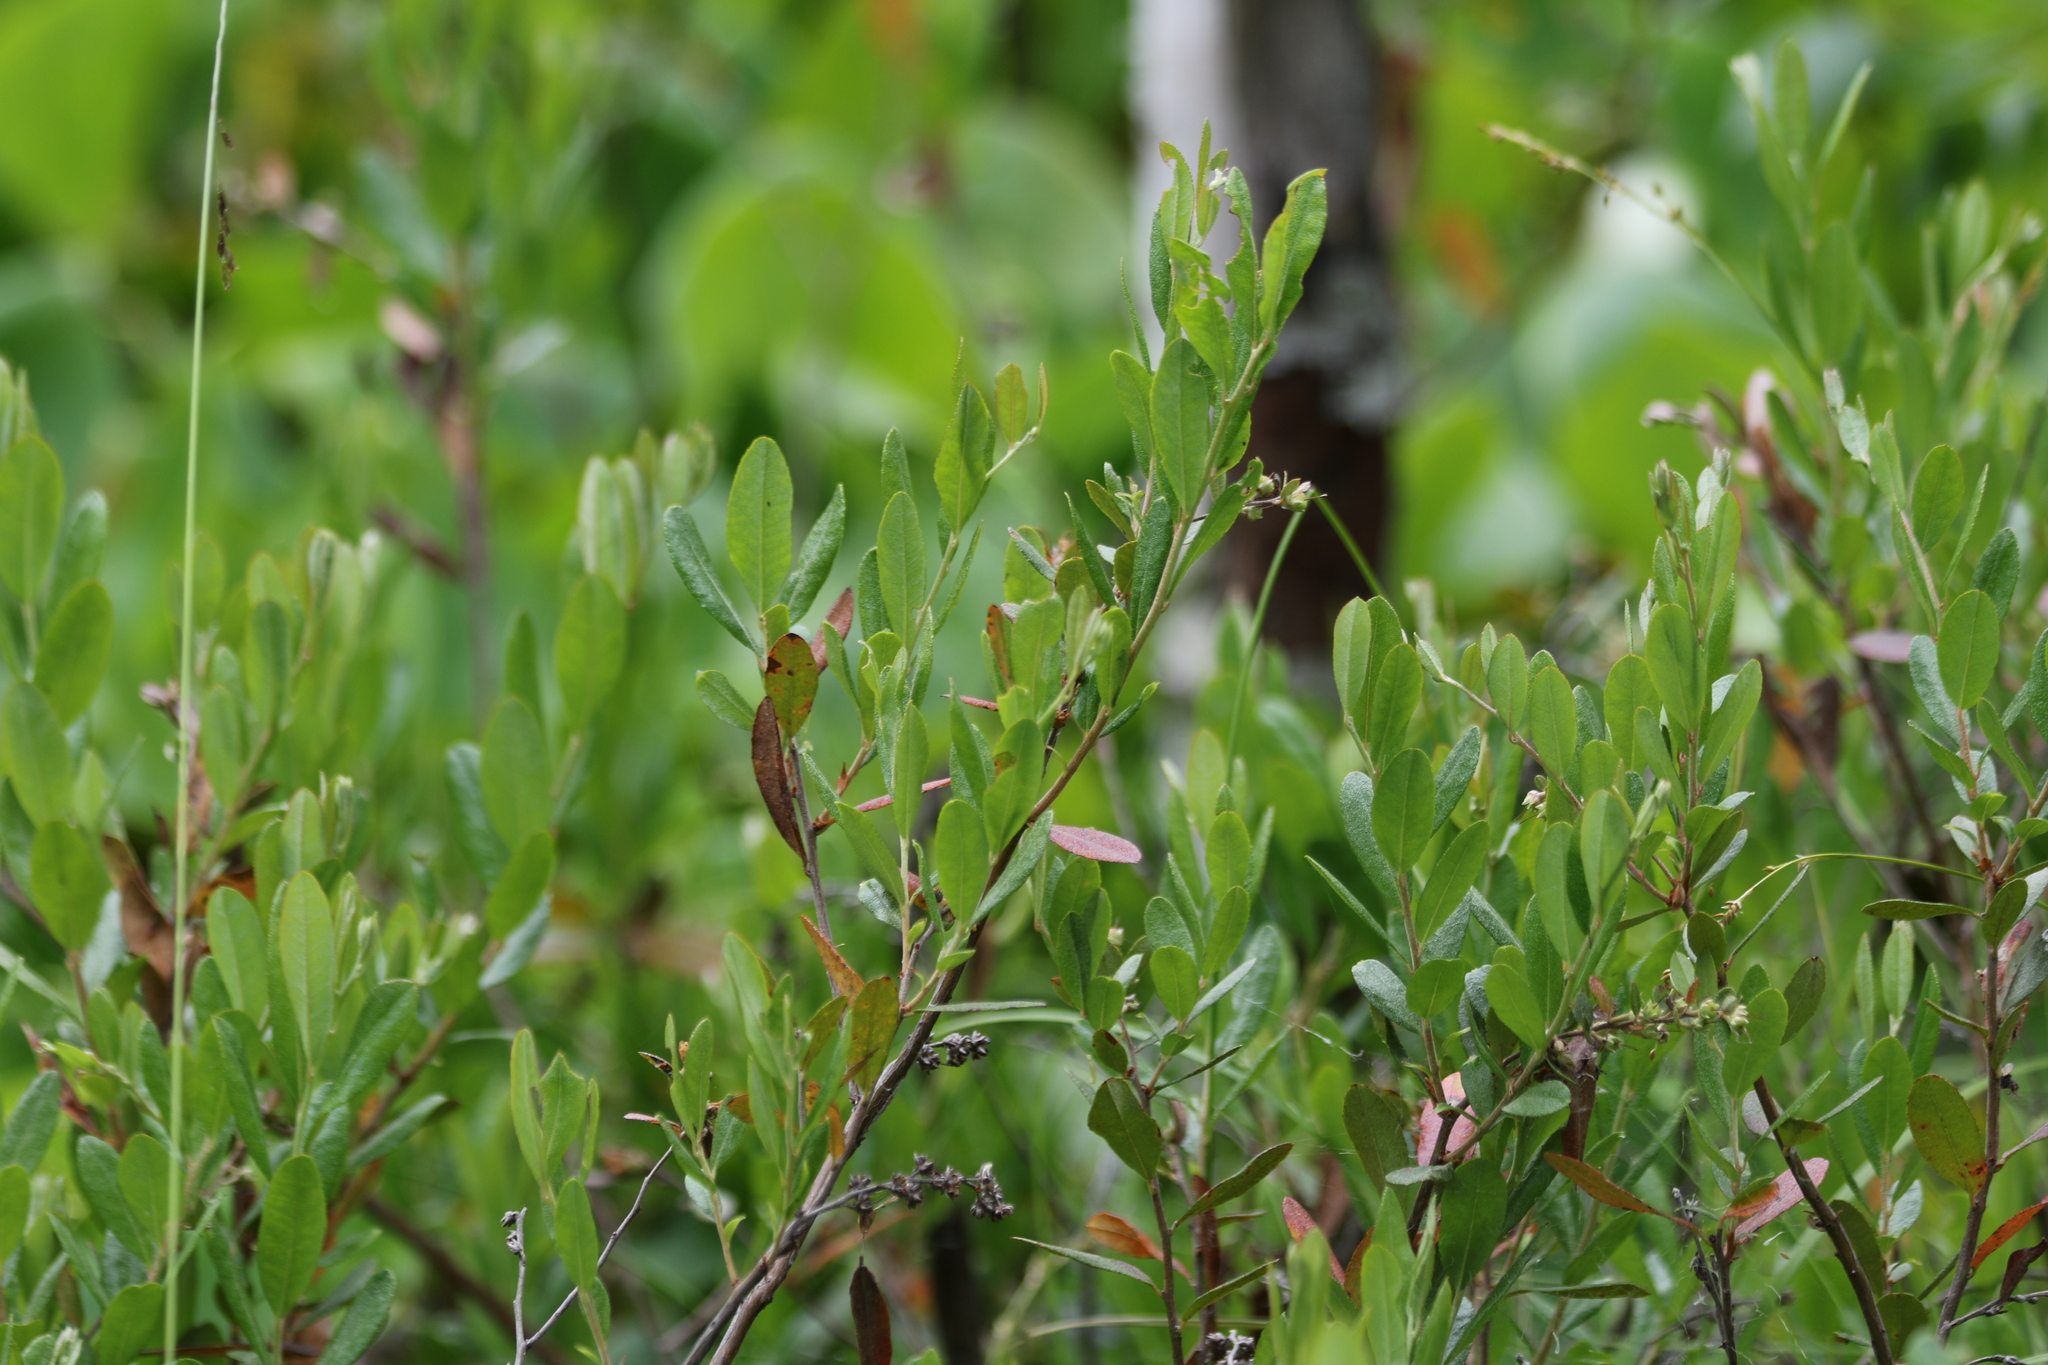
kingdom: Plantae
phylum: Tracheophyta
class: Magnoliopsida
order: Ericales
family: Ericaceae
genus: Chamaedaphne
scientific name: Chamaedaphne calyculata
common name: Leatherleaf
